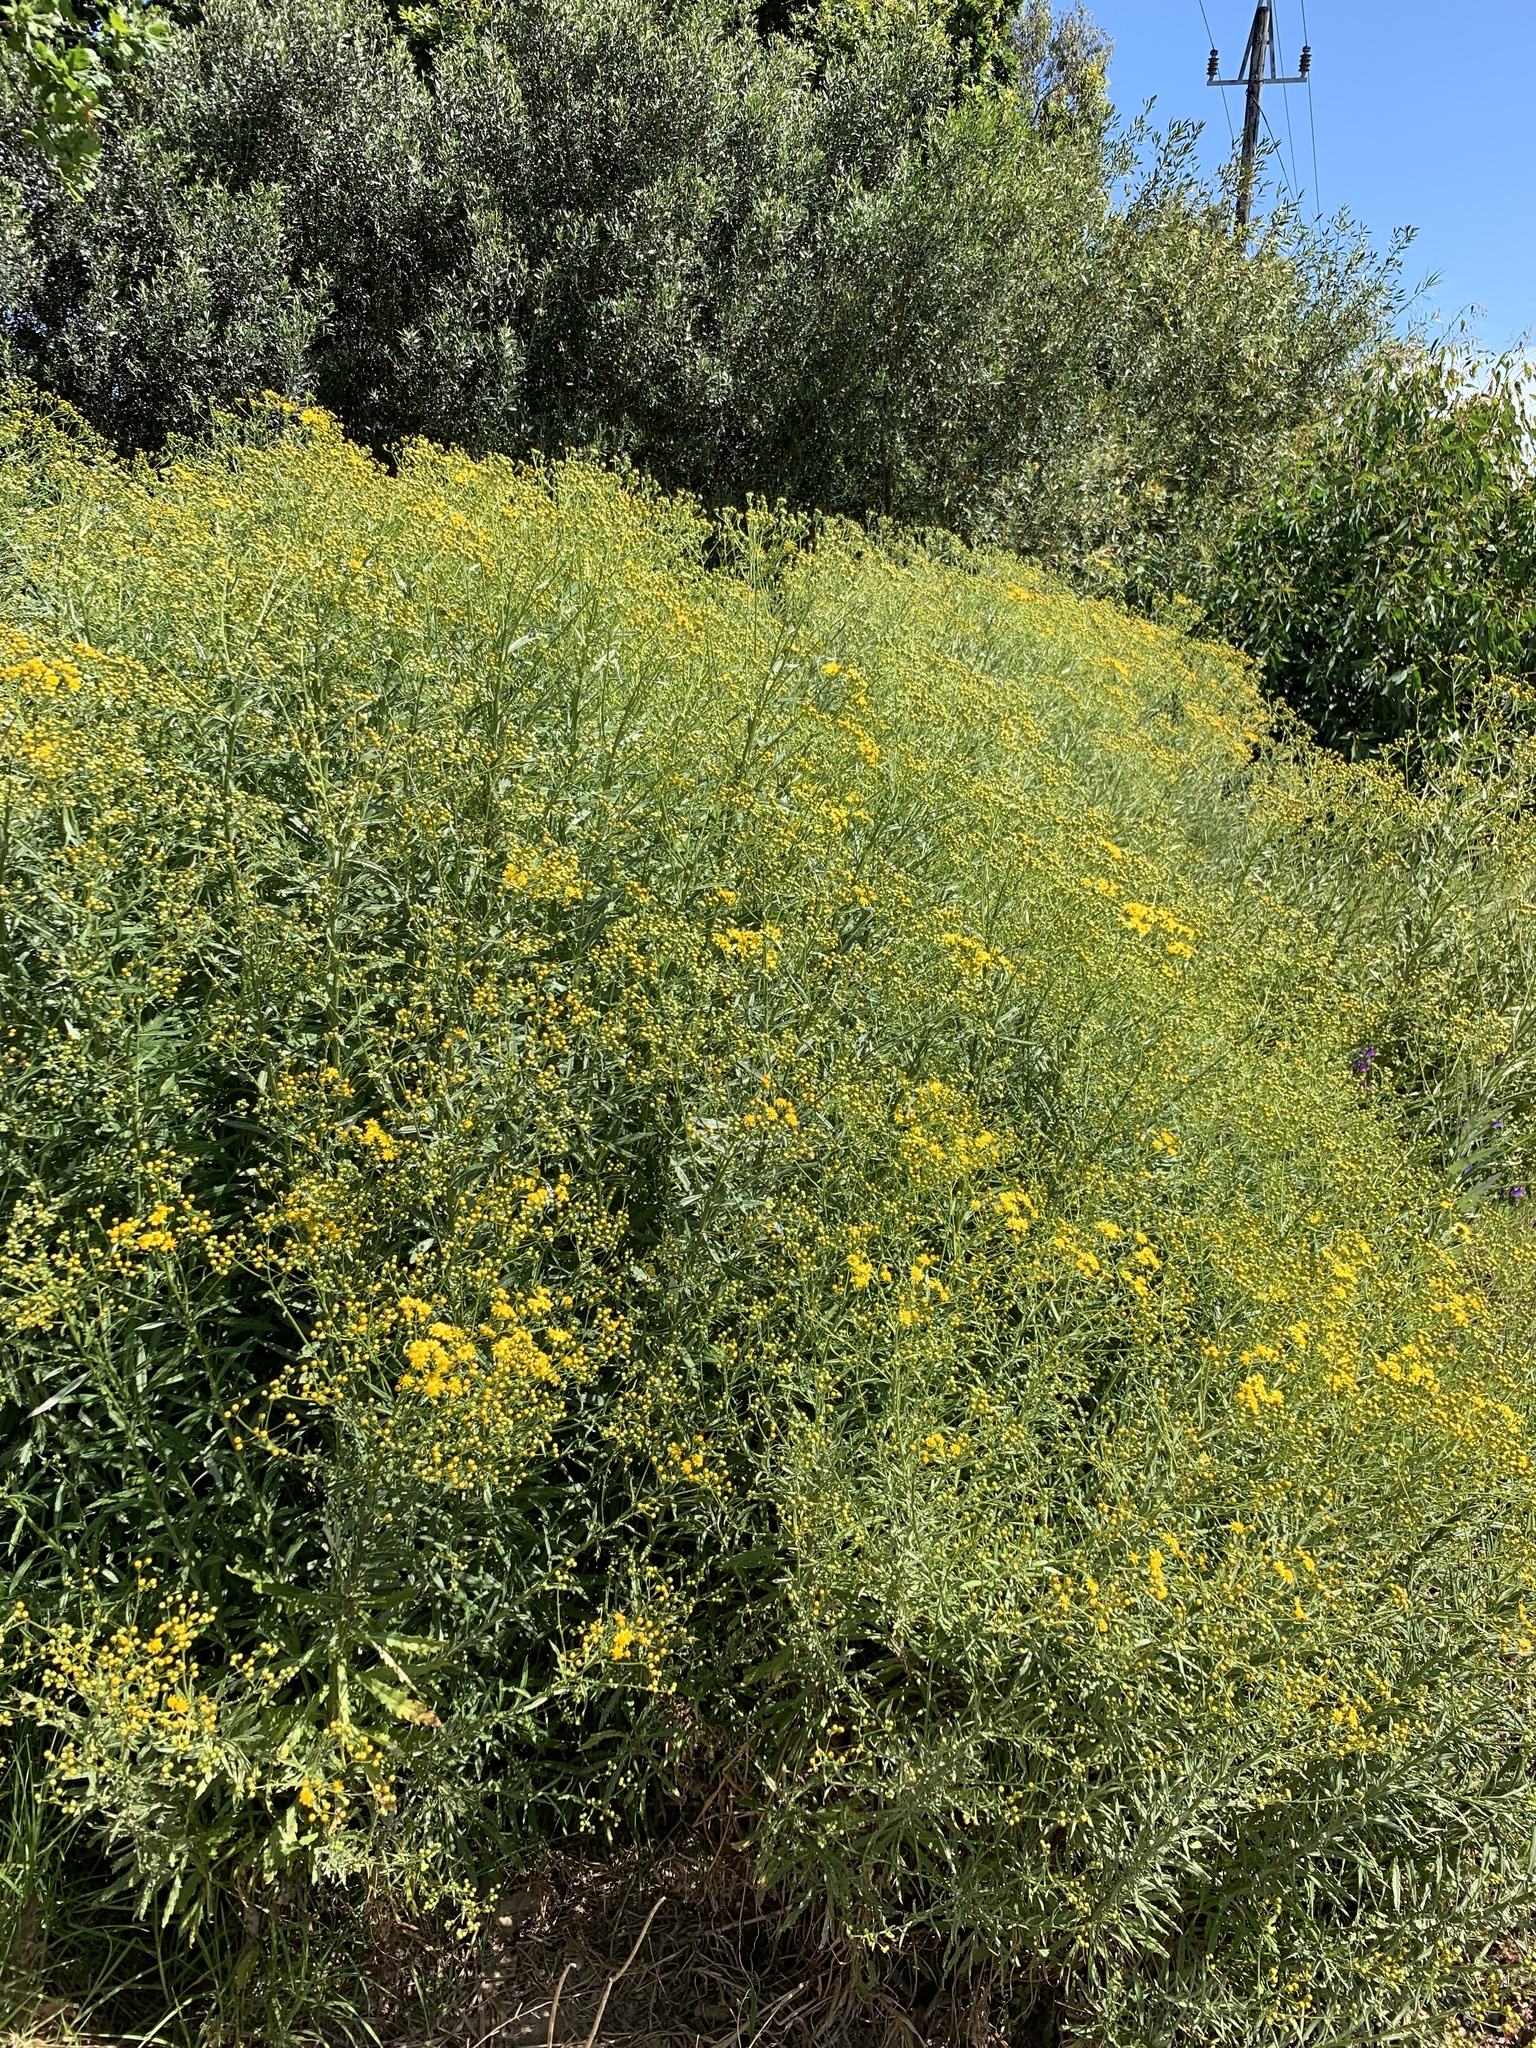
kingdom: Plantae
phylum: Tracheophyta
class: Magnoliopsida
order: Asterales
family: Asteraceae
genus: Senecio
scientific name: Senecio pterophorus
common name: Shoddy ragwort
